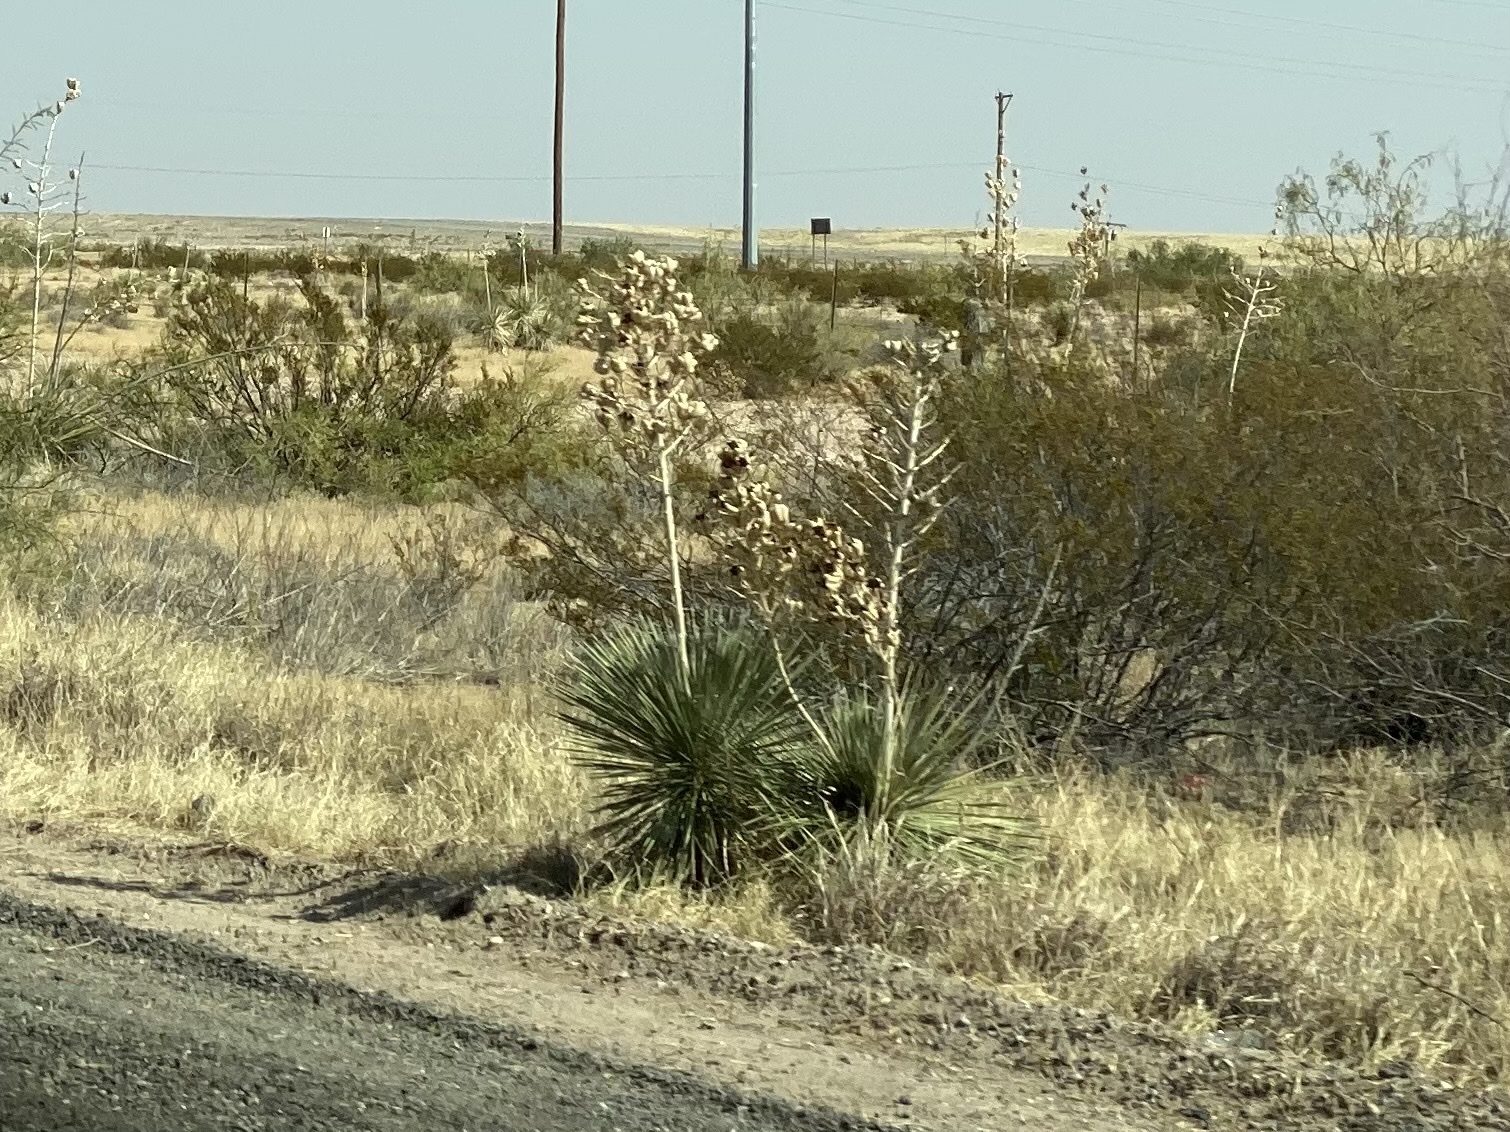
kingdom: Plantae
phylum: Tracheophyta
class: Liliopsida
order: Asparagales
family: Asparagaceae
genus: Yucca
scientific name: Yucca elata
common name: Palmella
